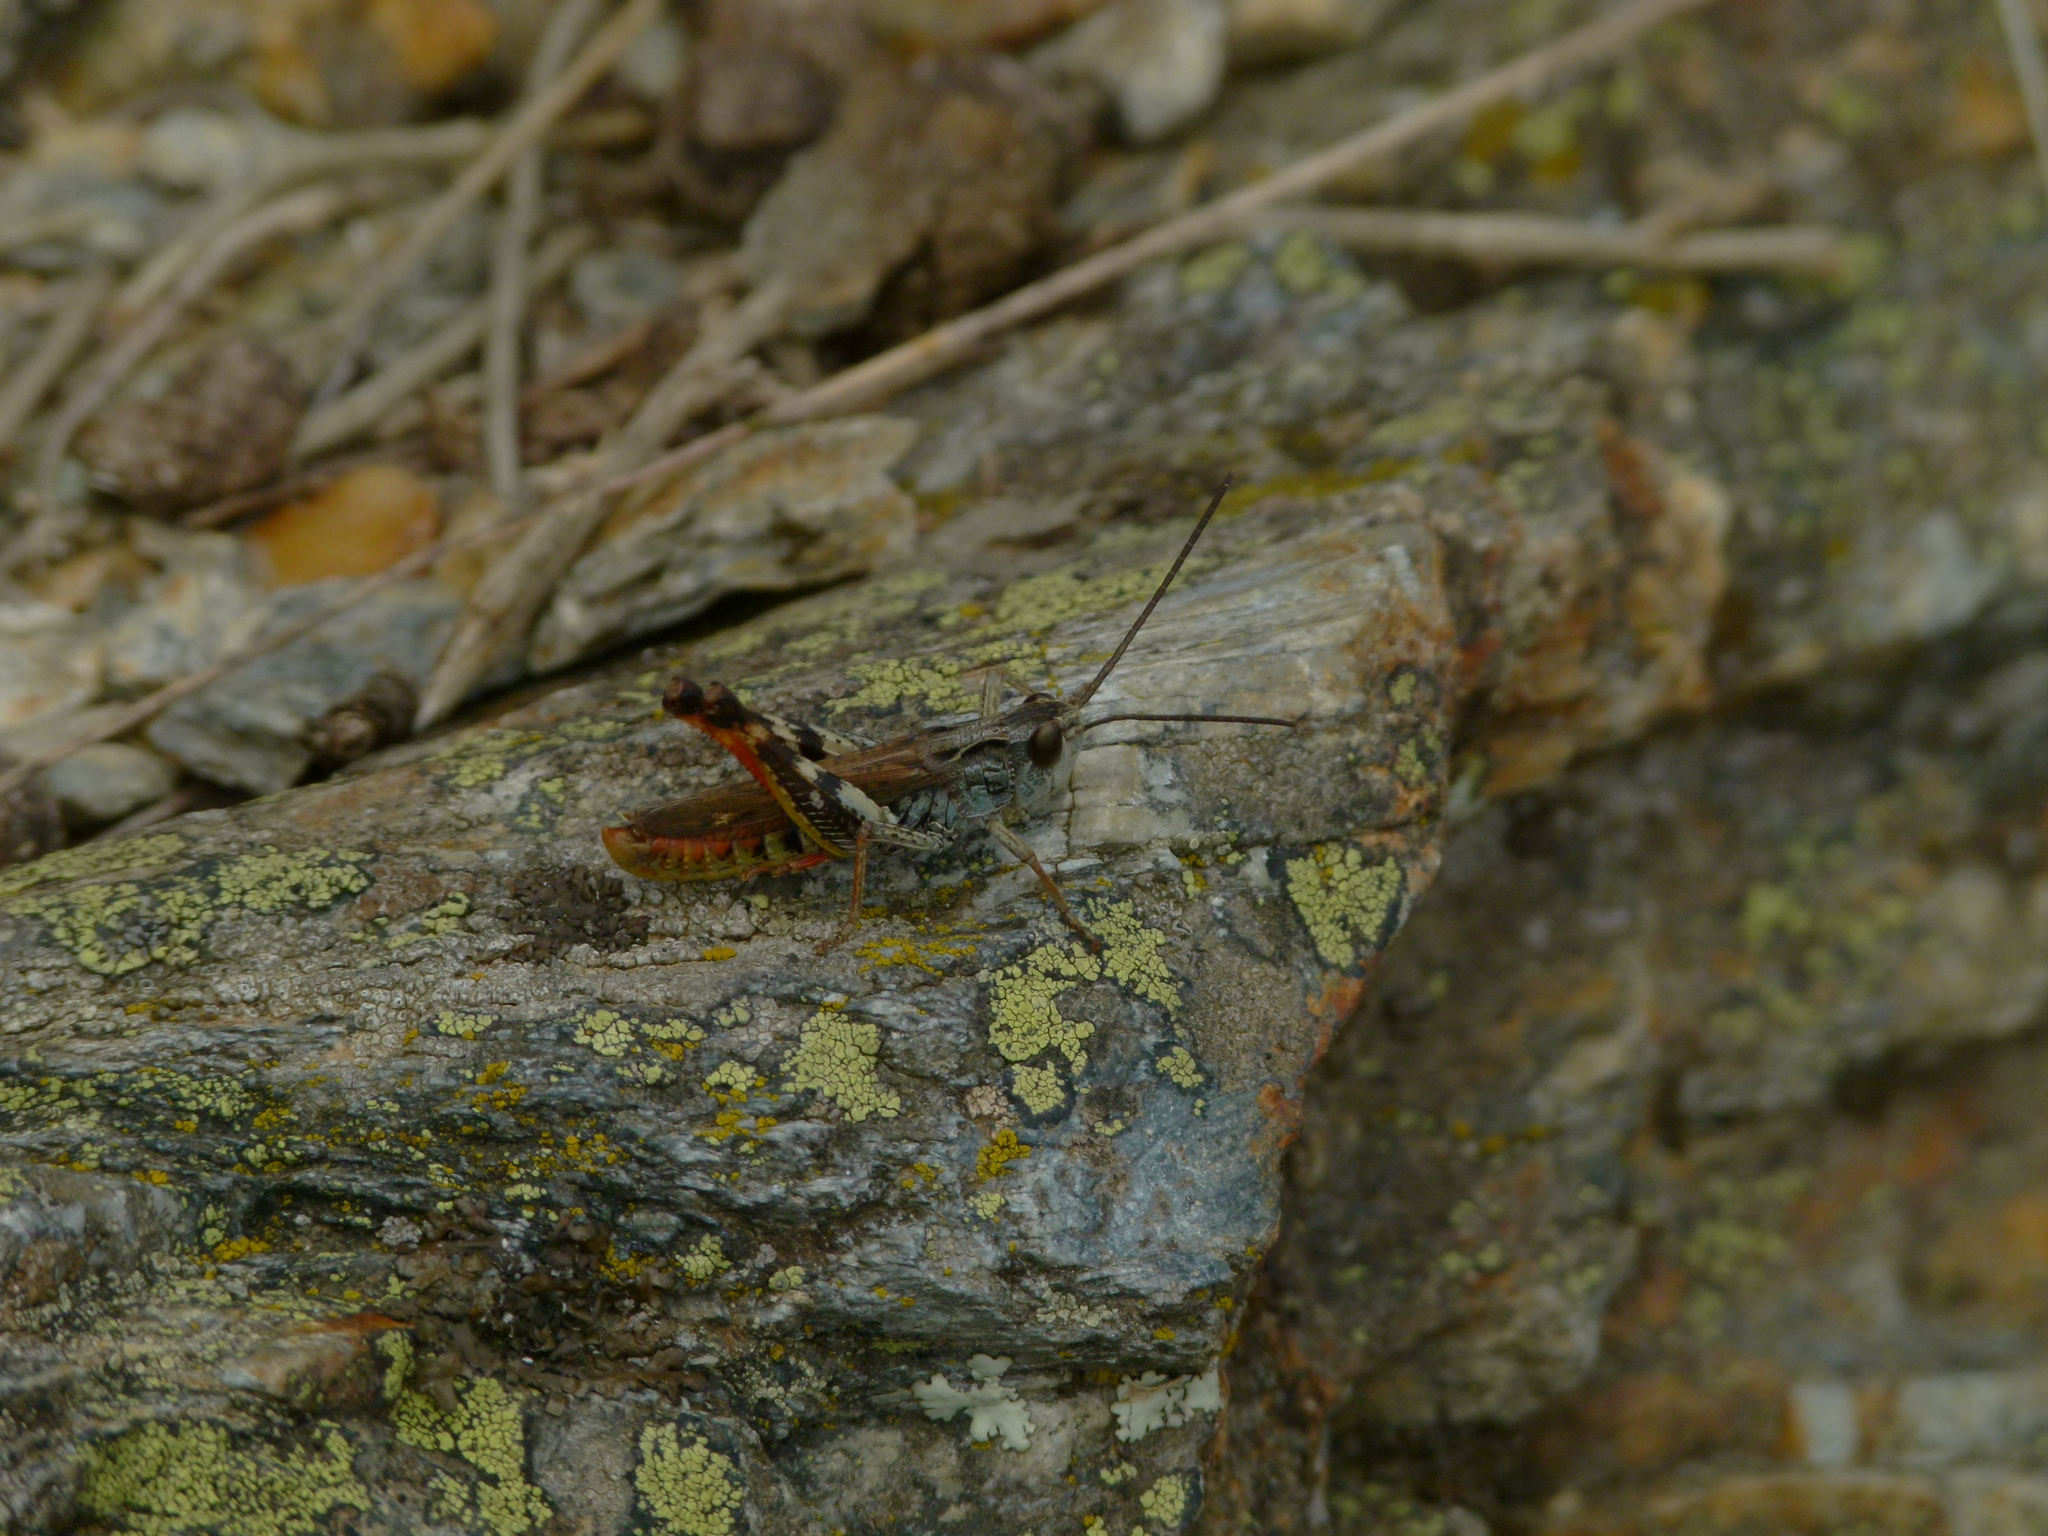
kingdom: Animalia
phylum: Arthropoda
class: Insecta
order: Orthoptera
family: Acrididae
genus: Chorthippus
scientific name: Chorthippus saulcyi
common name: French grasshopper
